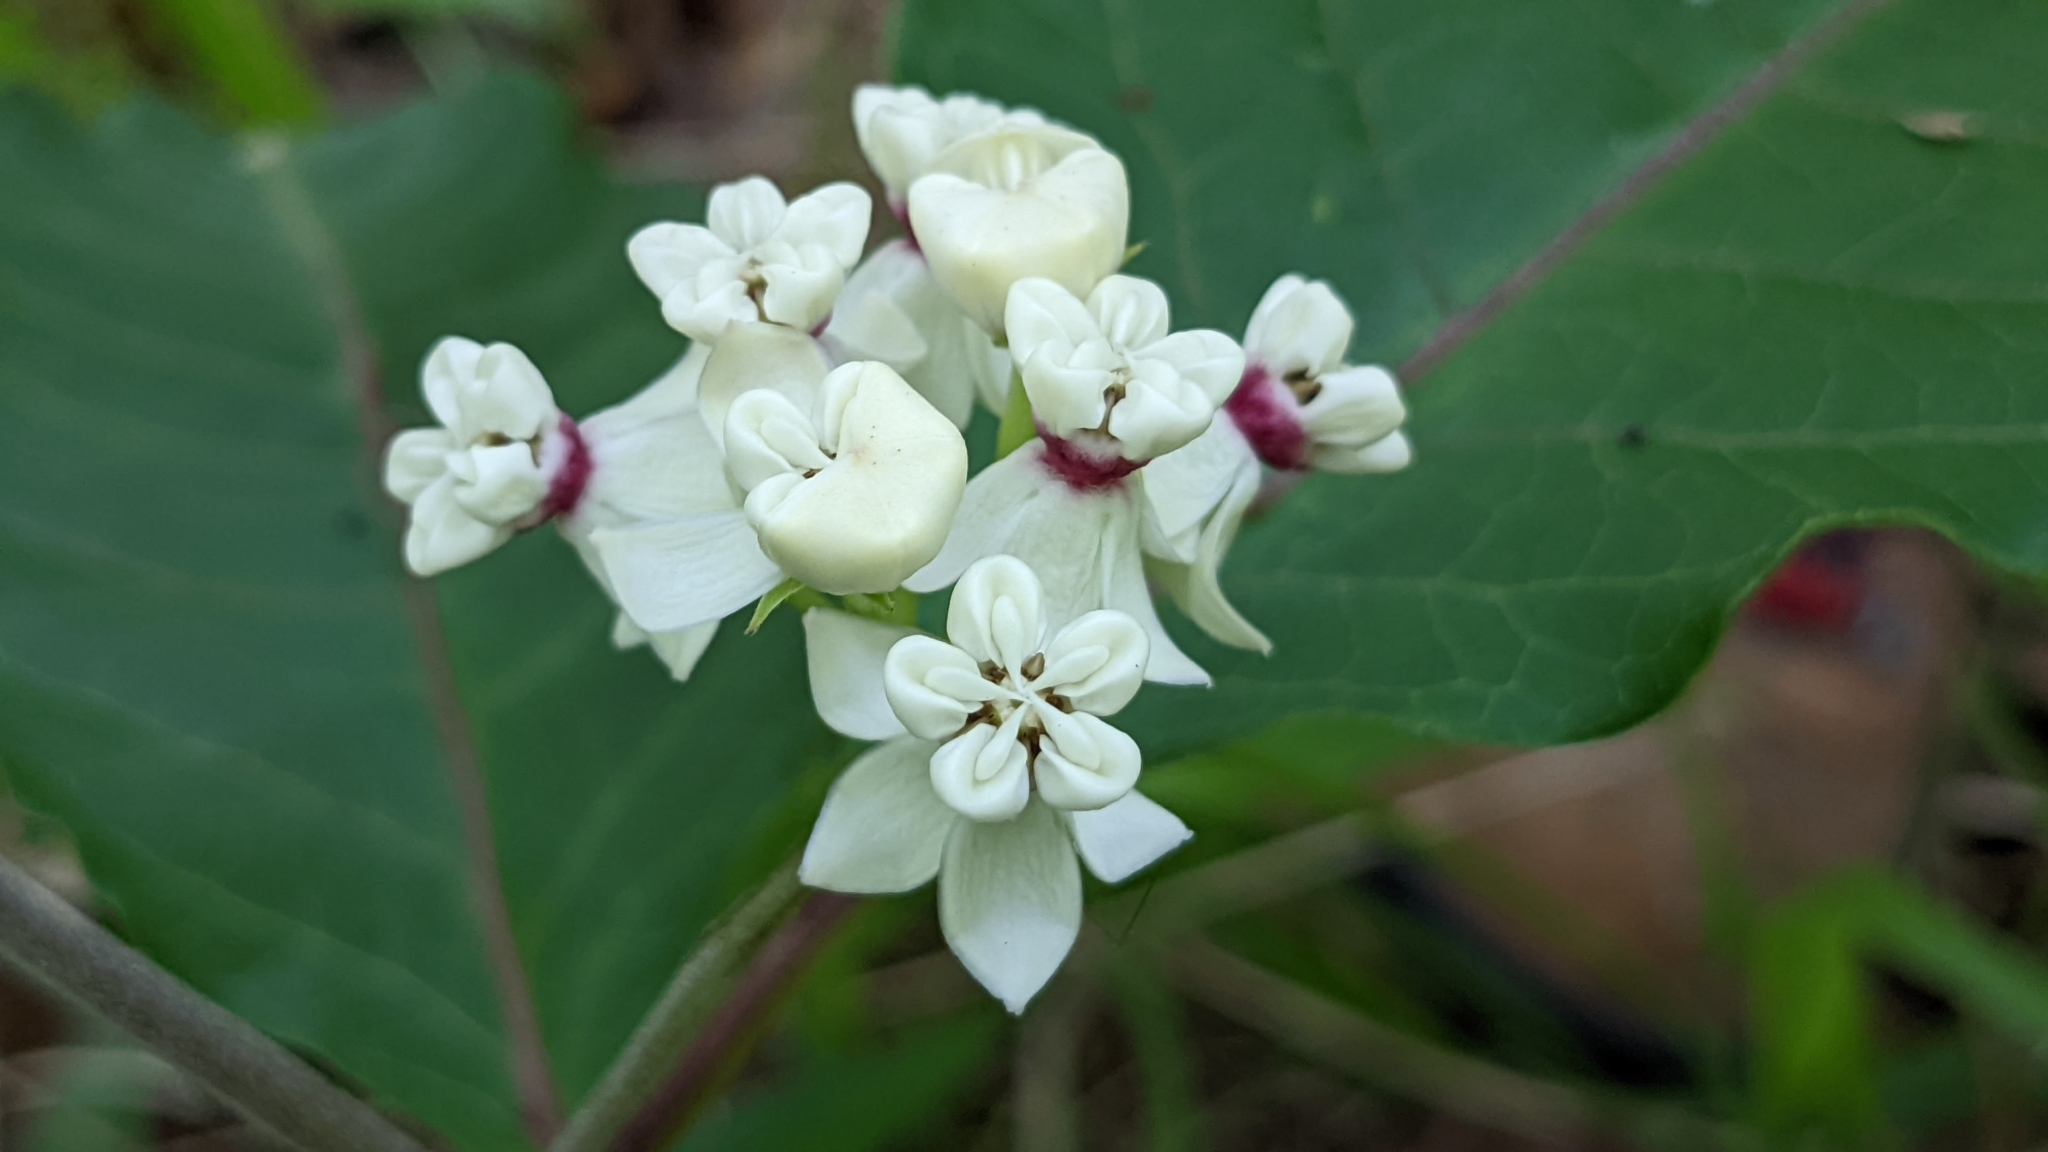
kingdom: Plantae
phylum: Tracheophyta
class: Magnoliopsida
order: Gentianales
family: Apocynaceae
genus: Asclepias
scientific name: Asclepias variegata
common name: Variegated milkweed
